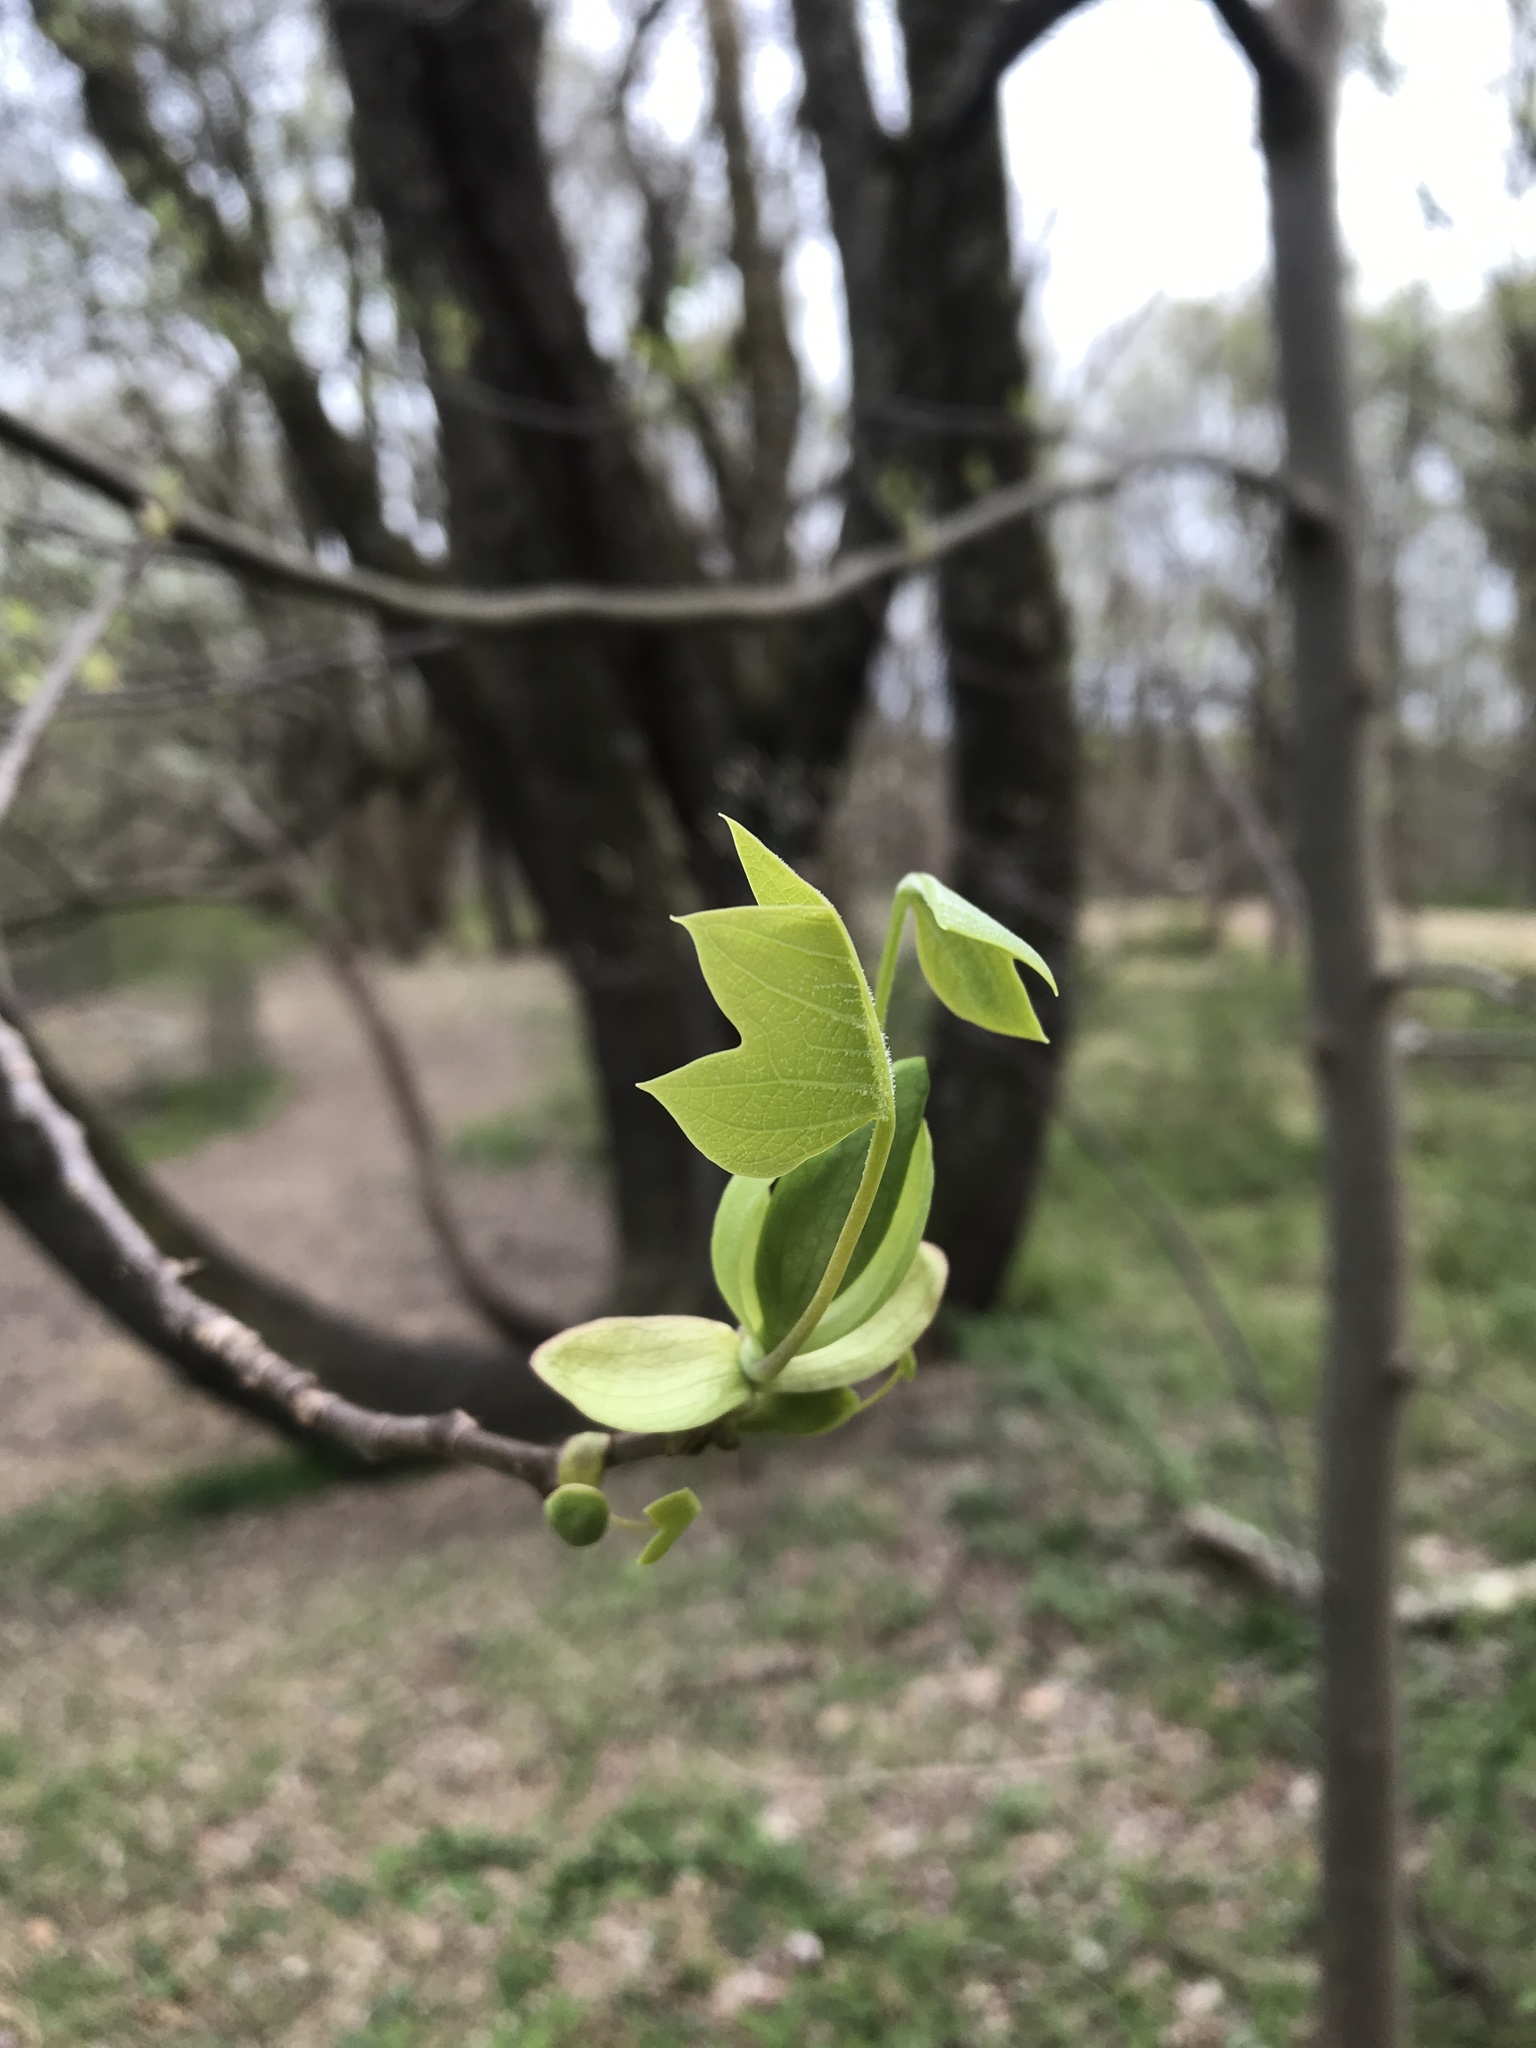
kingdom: Plantae
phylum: Tracheophyta
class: Magnoliopsida
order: Magnoliales
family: Magnoliaceae
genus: Liriodendron
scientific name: Liriodendron tulipifera
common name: Tulip tree
